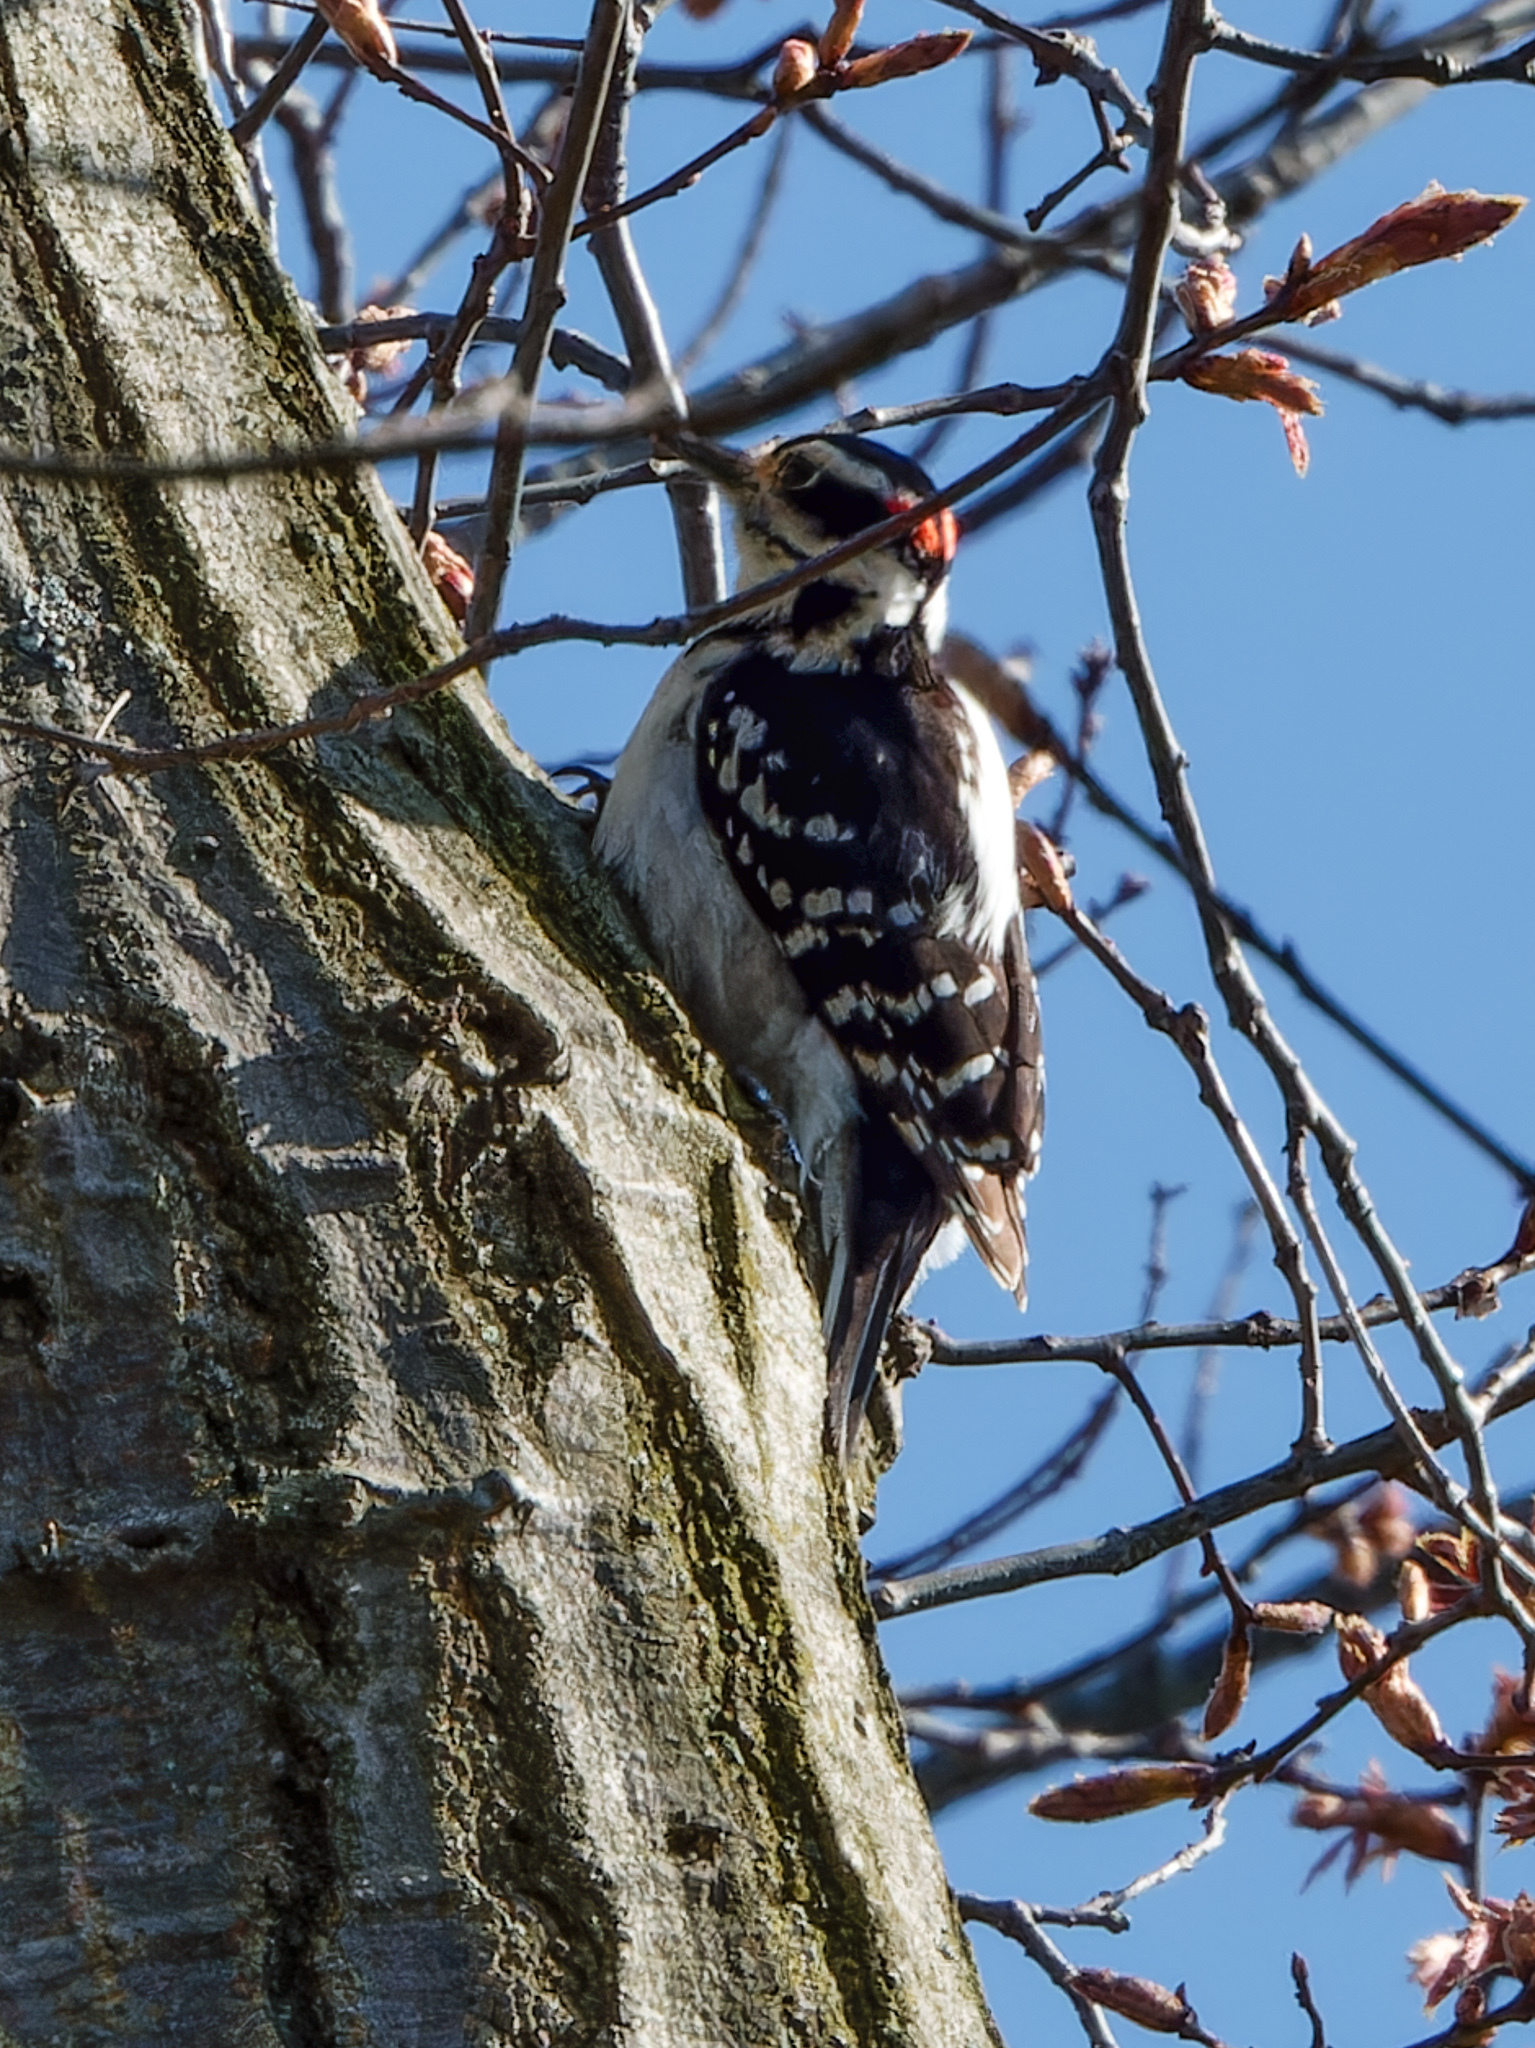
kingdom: Animalia
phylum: Chordata
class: Aves
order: Piciformes
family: Picidae
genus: Dryobates
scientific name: Dryobates pubescens
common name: Downy woodpecker
